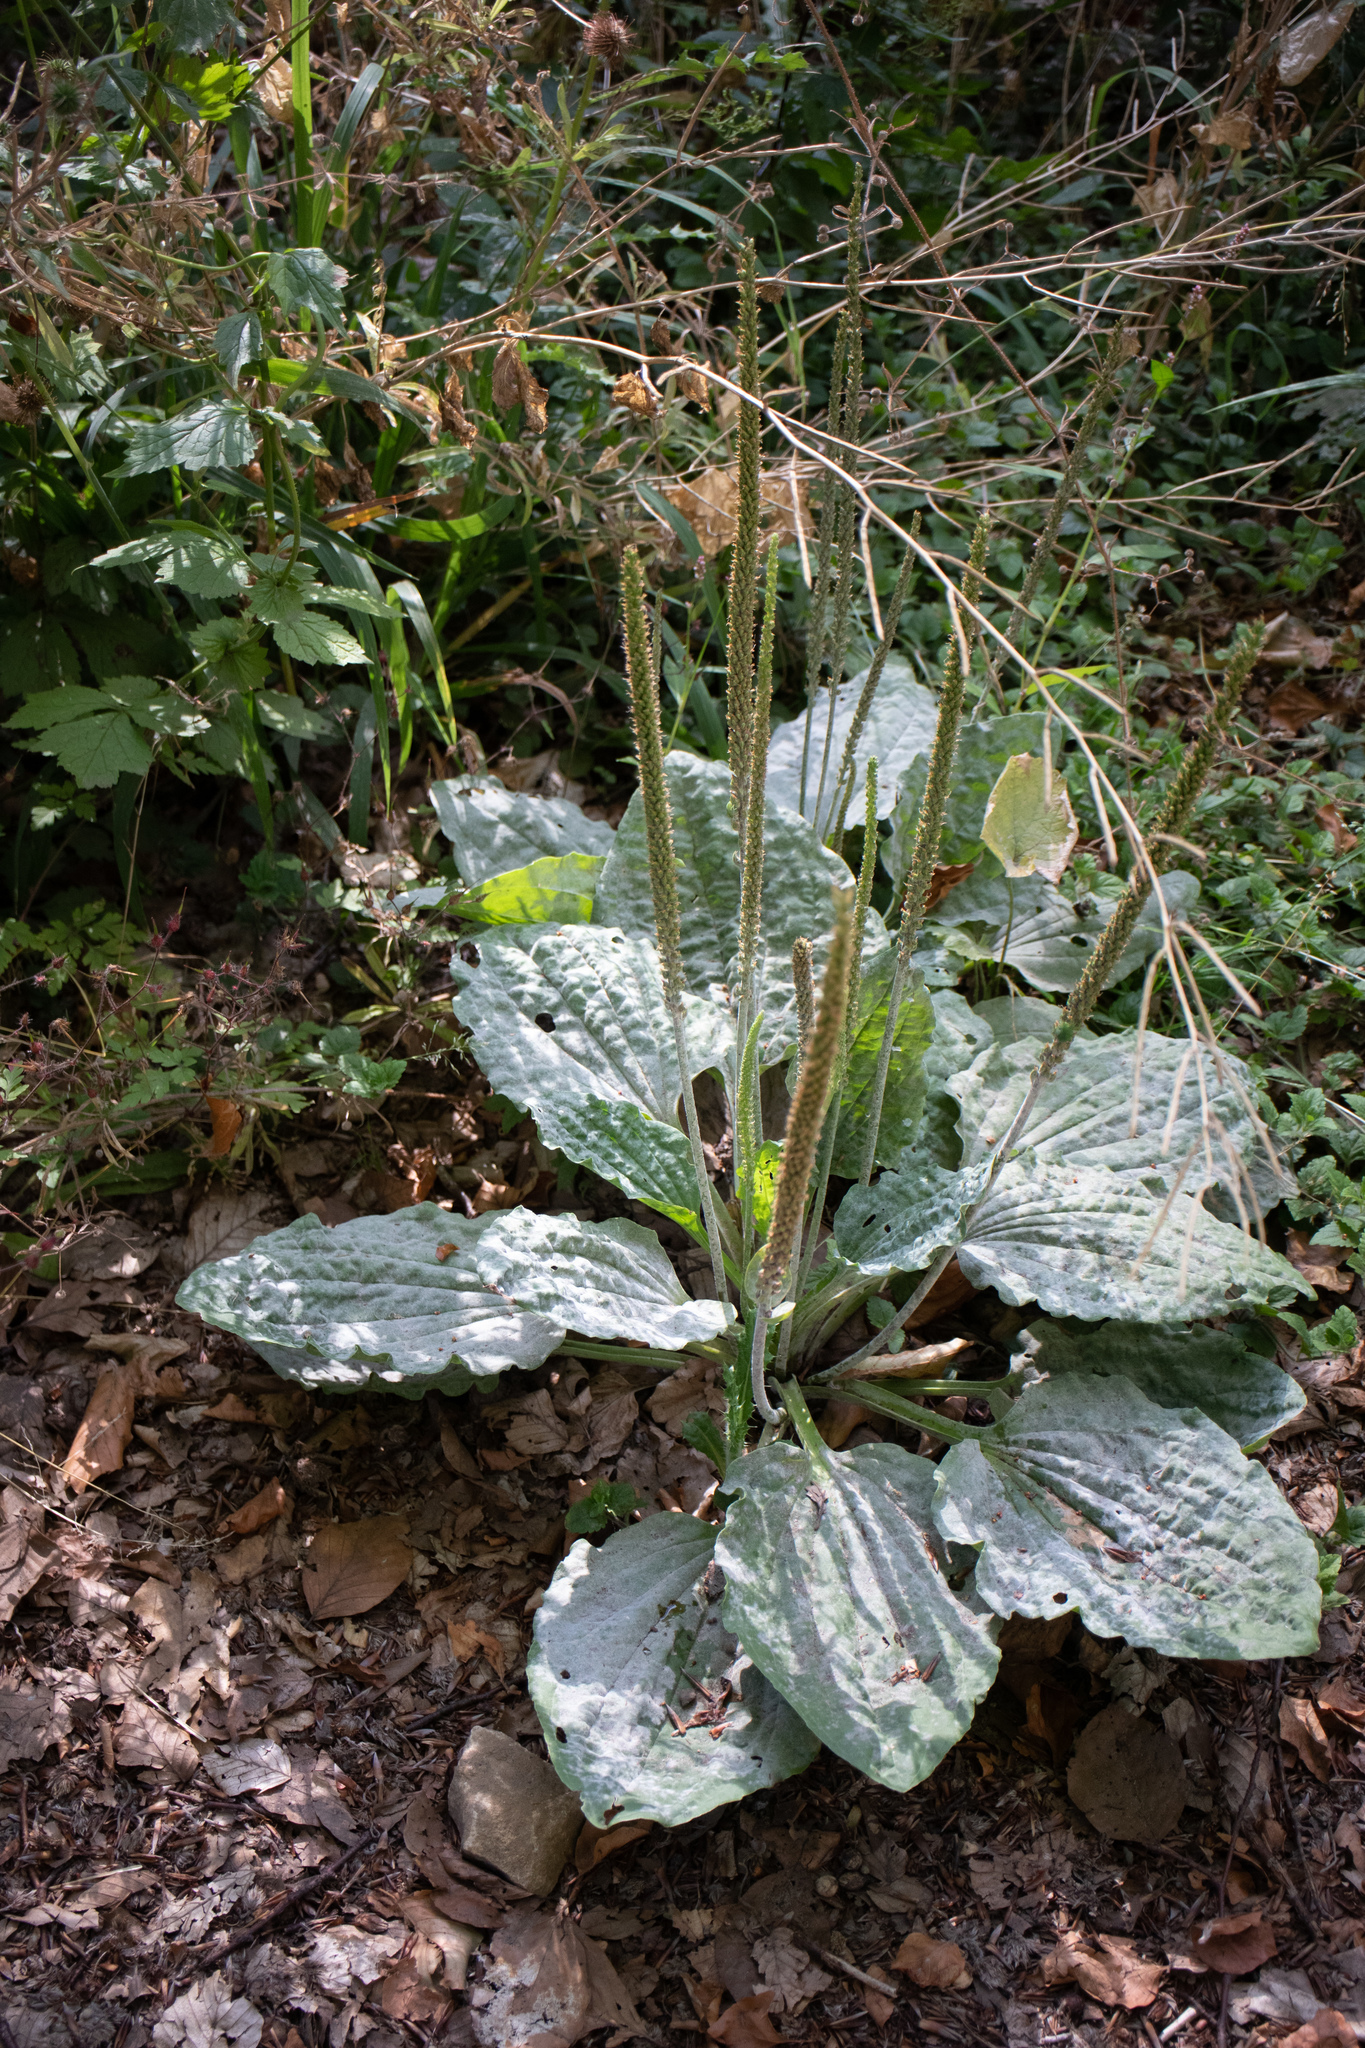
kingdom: Plantae
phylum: Tracheophyta
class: Magnoliopsida
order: Lamiales
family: Plantaginaceae
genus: Plantago
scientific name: Plantago major
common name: Common plantain
